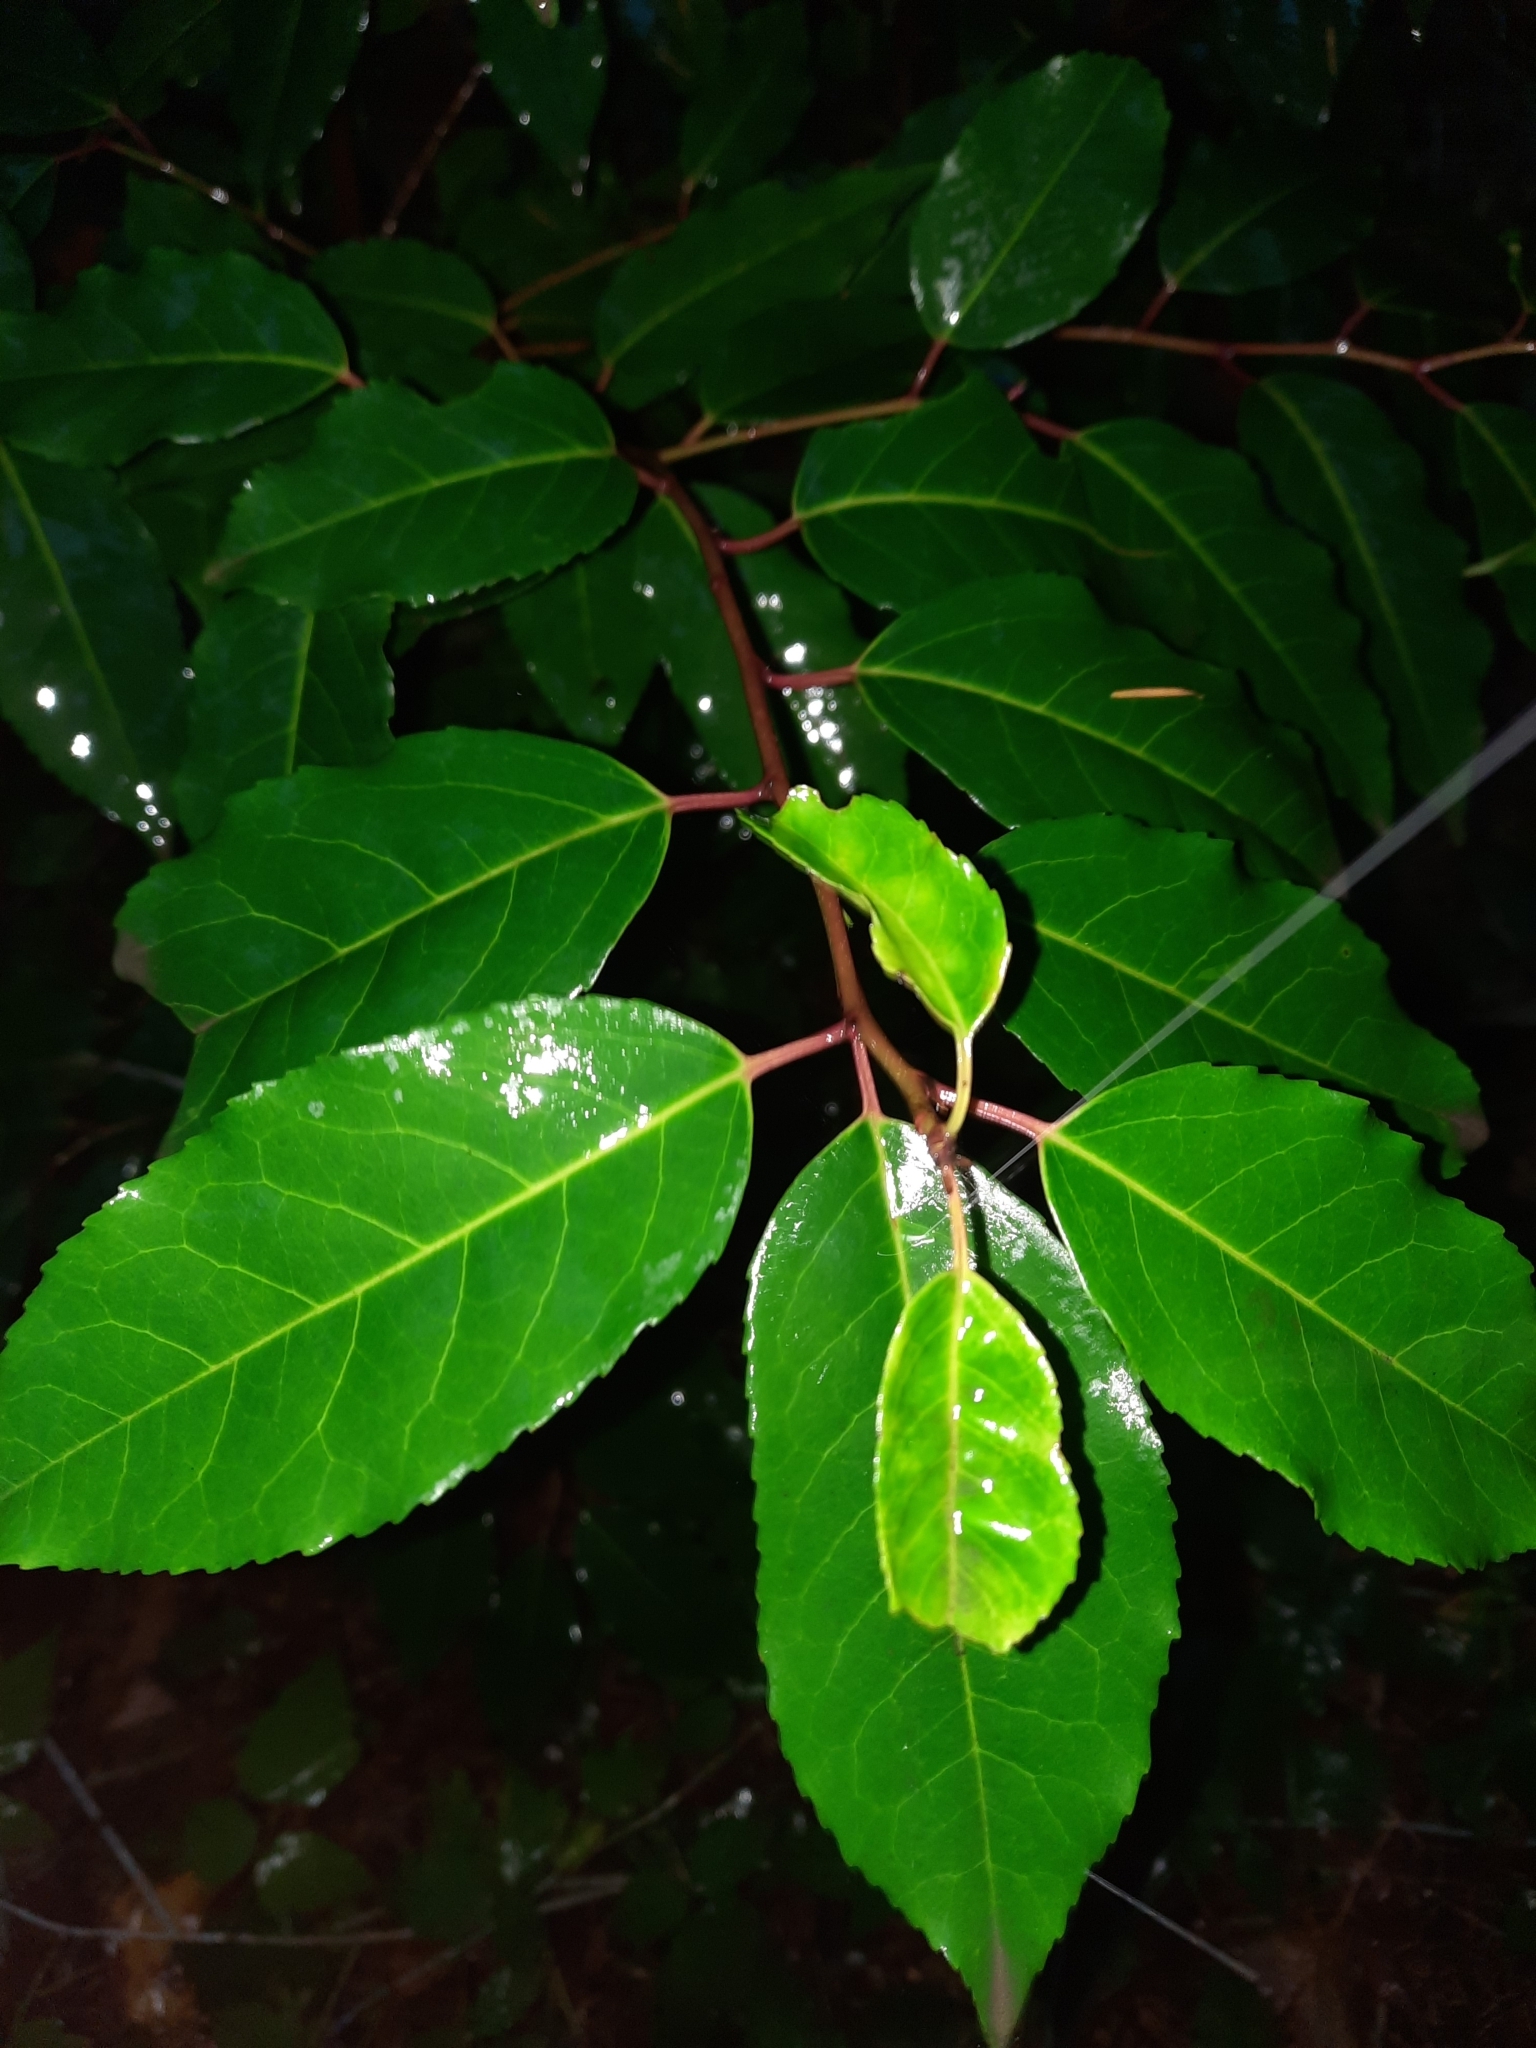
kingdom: Plantae
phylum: Tracheophyta
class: Magnoliopsida
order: Rosales
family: Rosaceae
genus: Prunus
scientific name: Prunus lusitanica
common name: Portugal laurel
